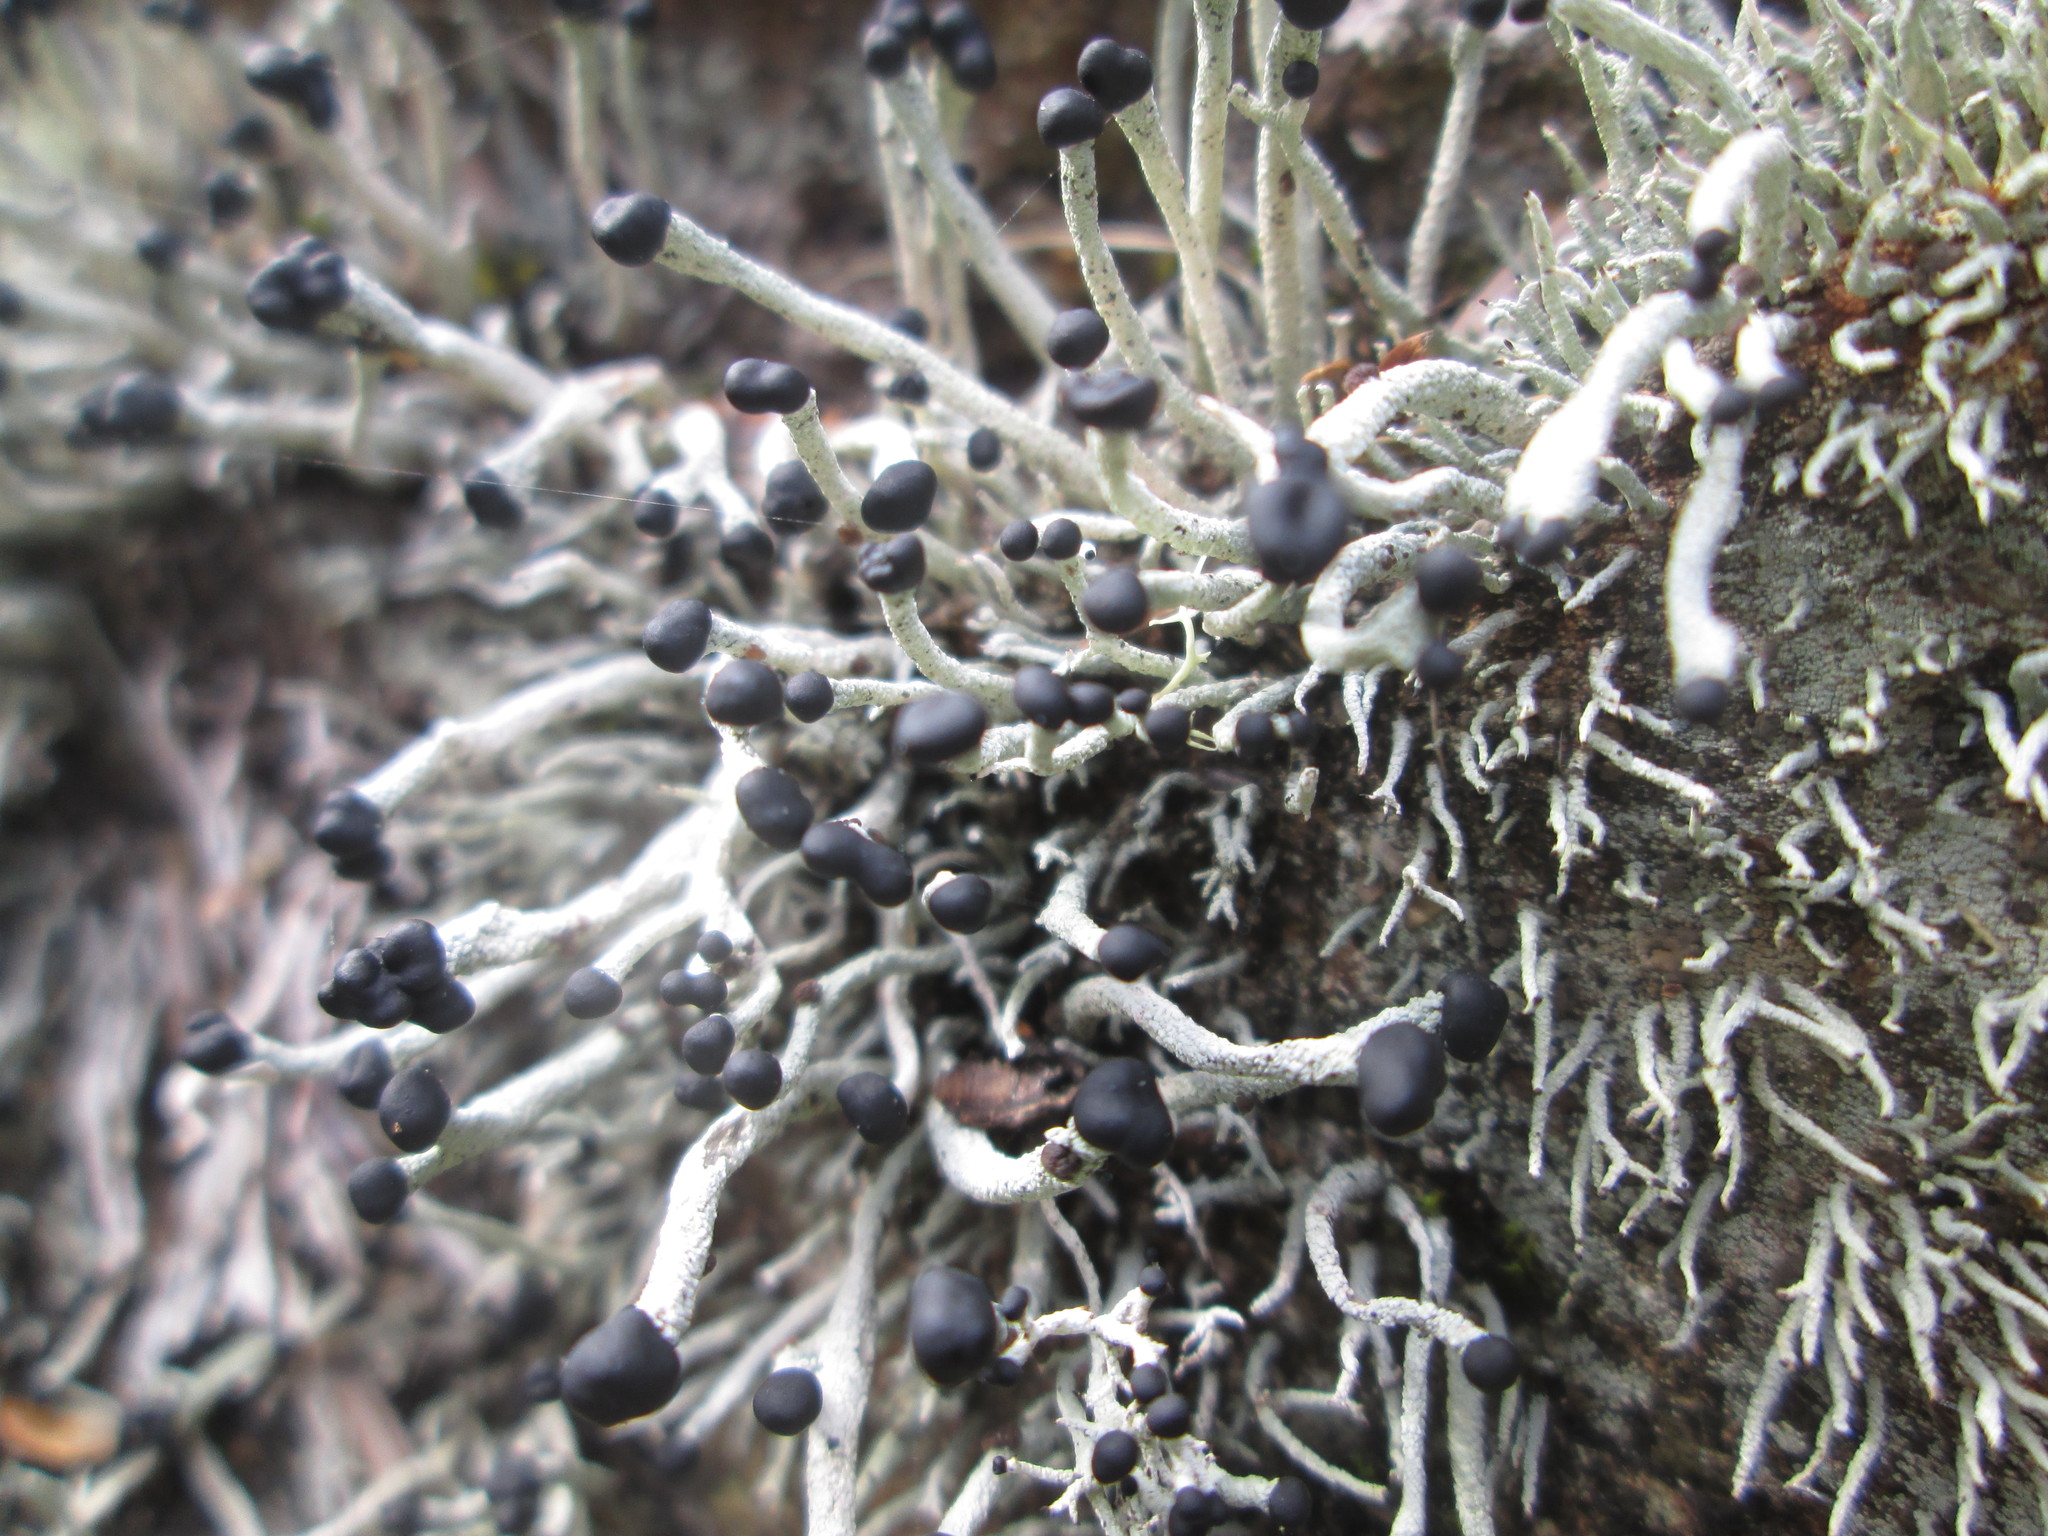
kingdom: Fungi
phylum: Ascomycota
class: Lecanoromycetes
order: Lecanorales
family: Cladoniaceae
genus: Pilophorus
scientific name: Pilophorus acicularis
